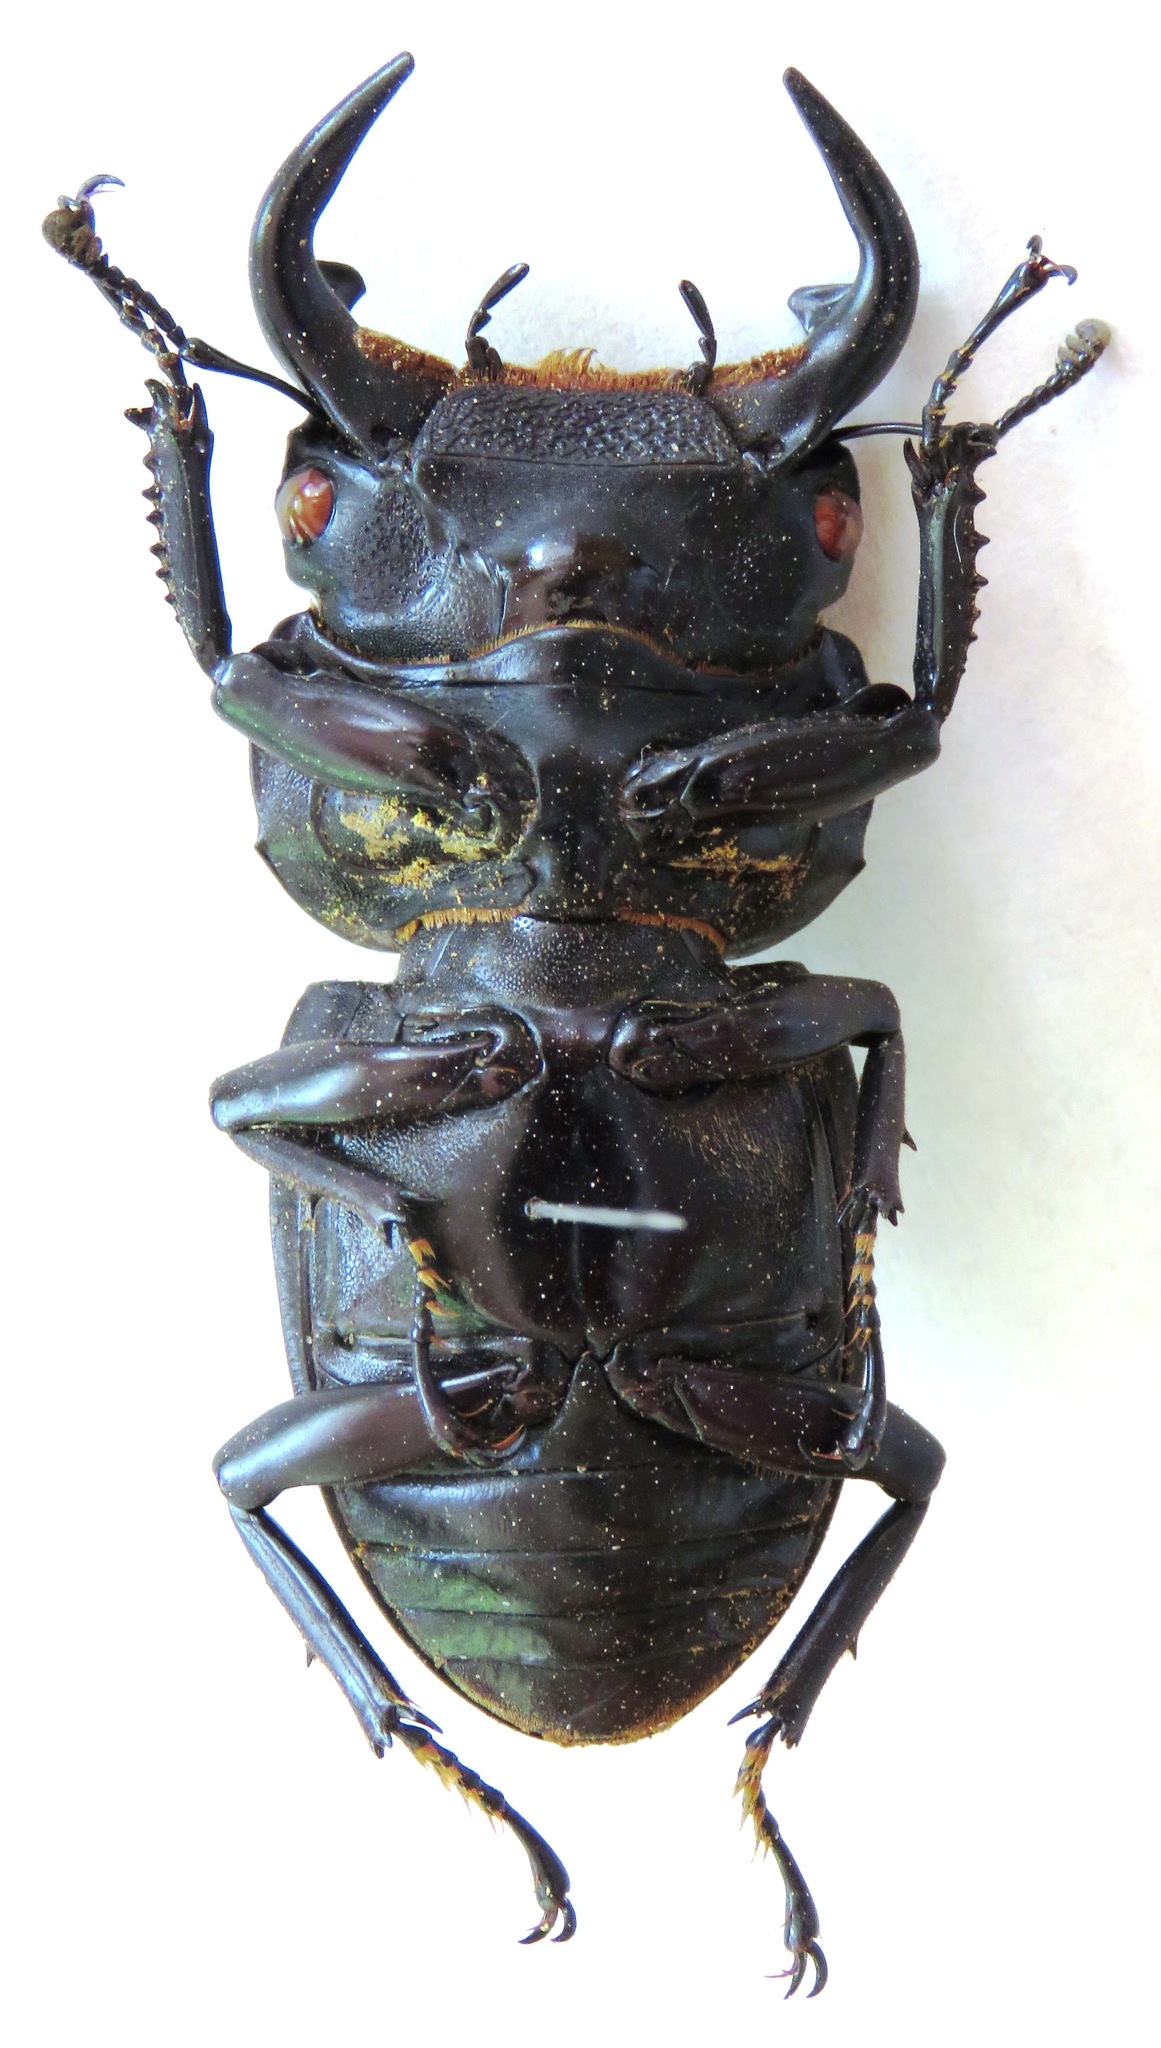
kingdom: Animalia
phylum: Arthropoda
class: Insecta
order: Coleoptera
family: Lucanidae
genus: Dorcus
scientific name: Dorcus antaeus
